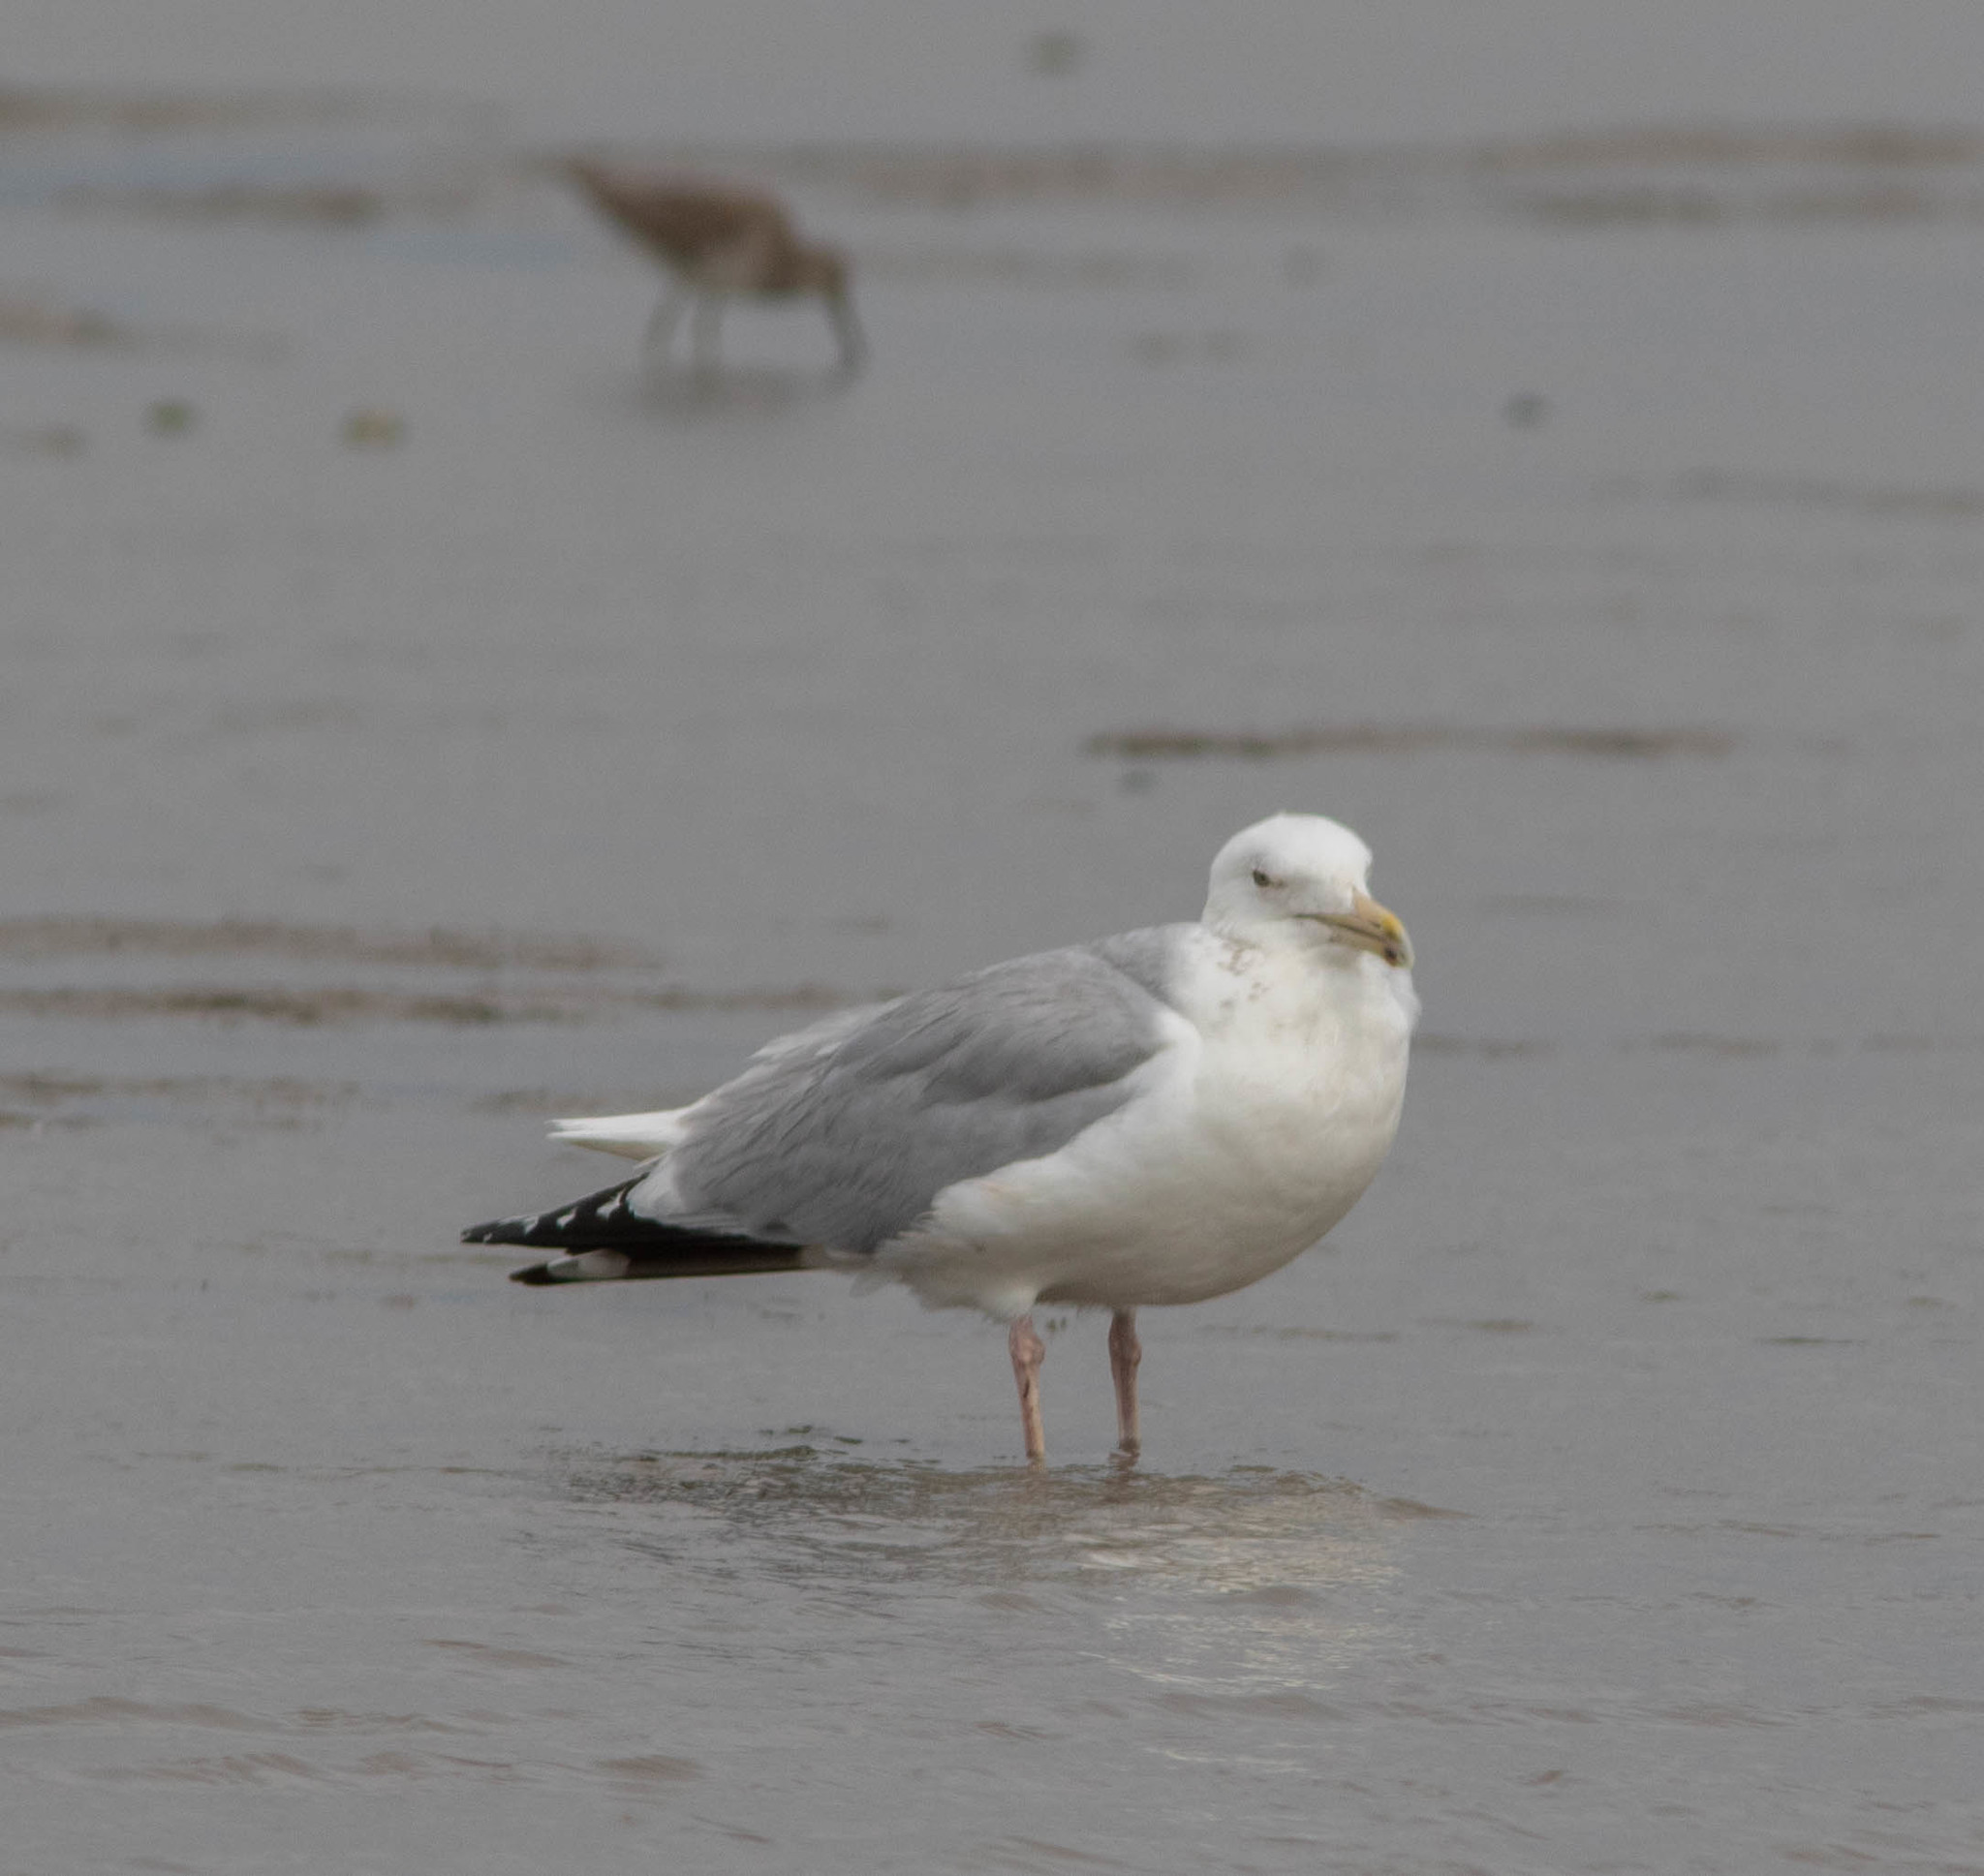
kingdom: Animalia
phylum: Chordata
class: Aves
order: Charadriiformes
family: Laridae
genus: Larus
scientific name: Larus argentatus
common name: Herring gull
